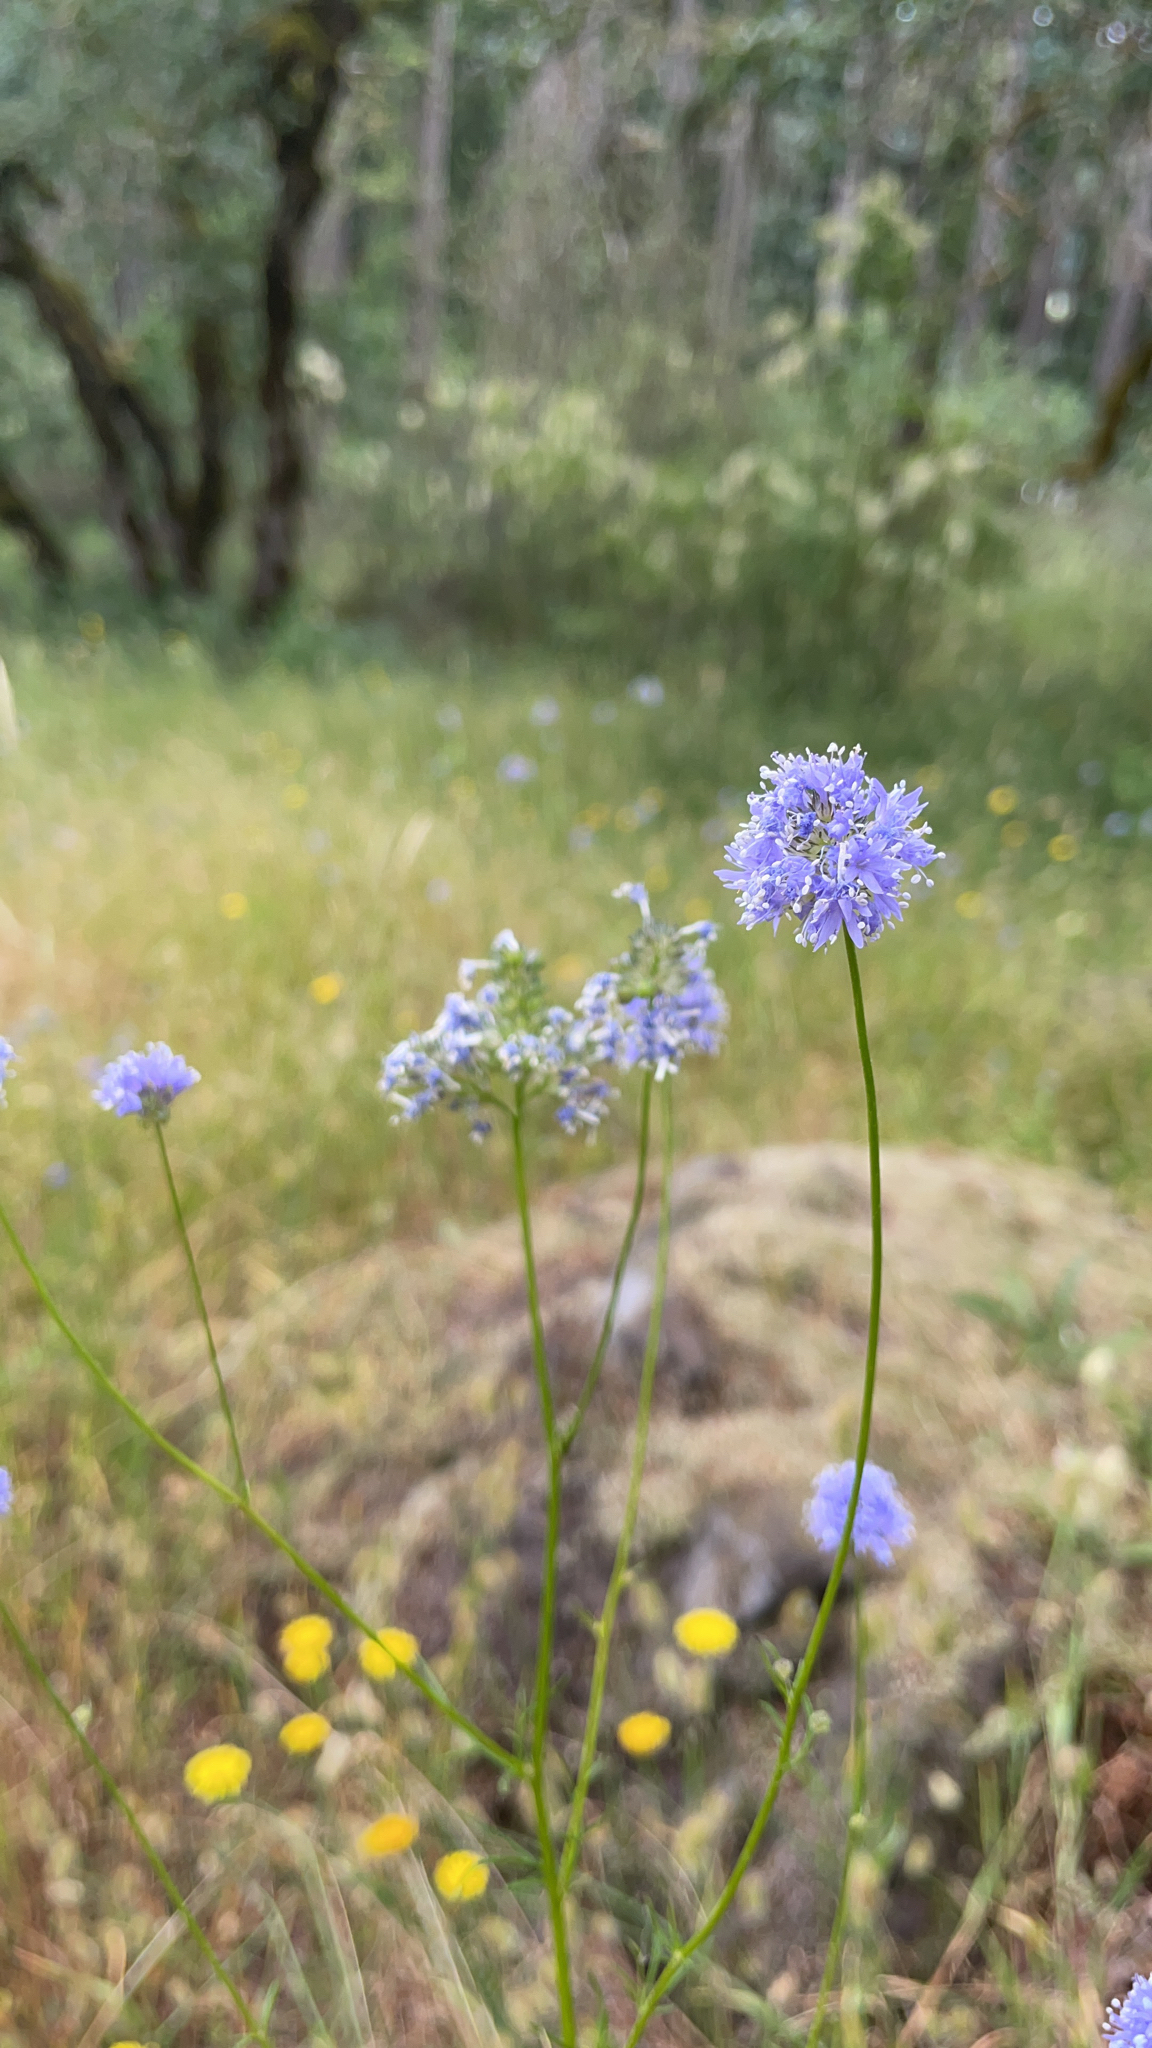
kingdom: Plantae
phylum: Tracheophyta
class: Magnoliopsida
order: Ericales
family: Polemoniaceae
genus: Gilia
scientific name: Gilia capitata
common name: Bluehead gilia
